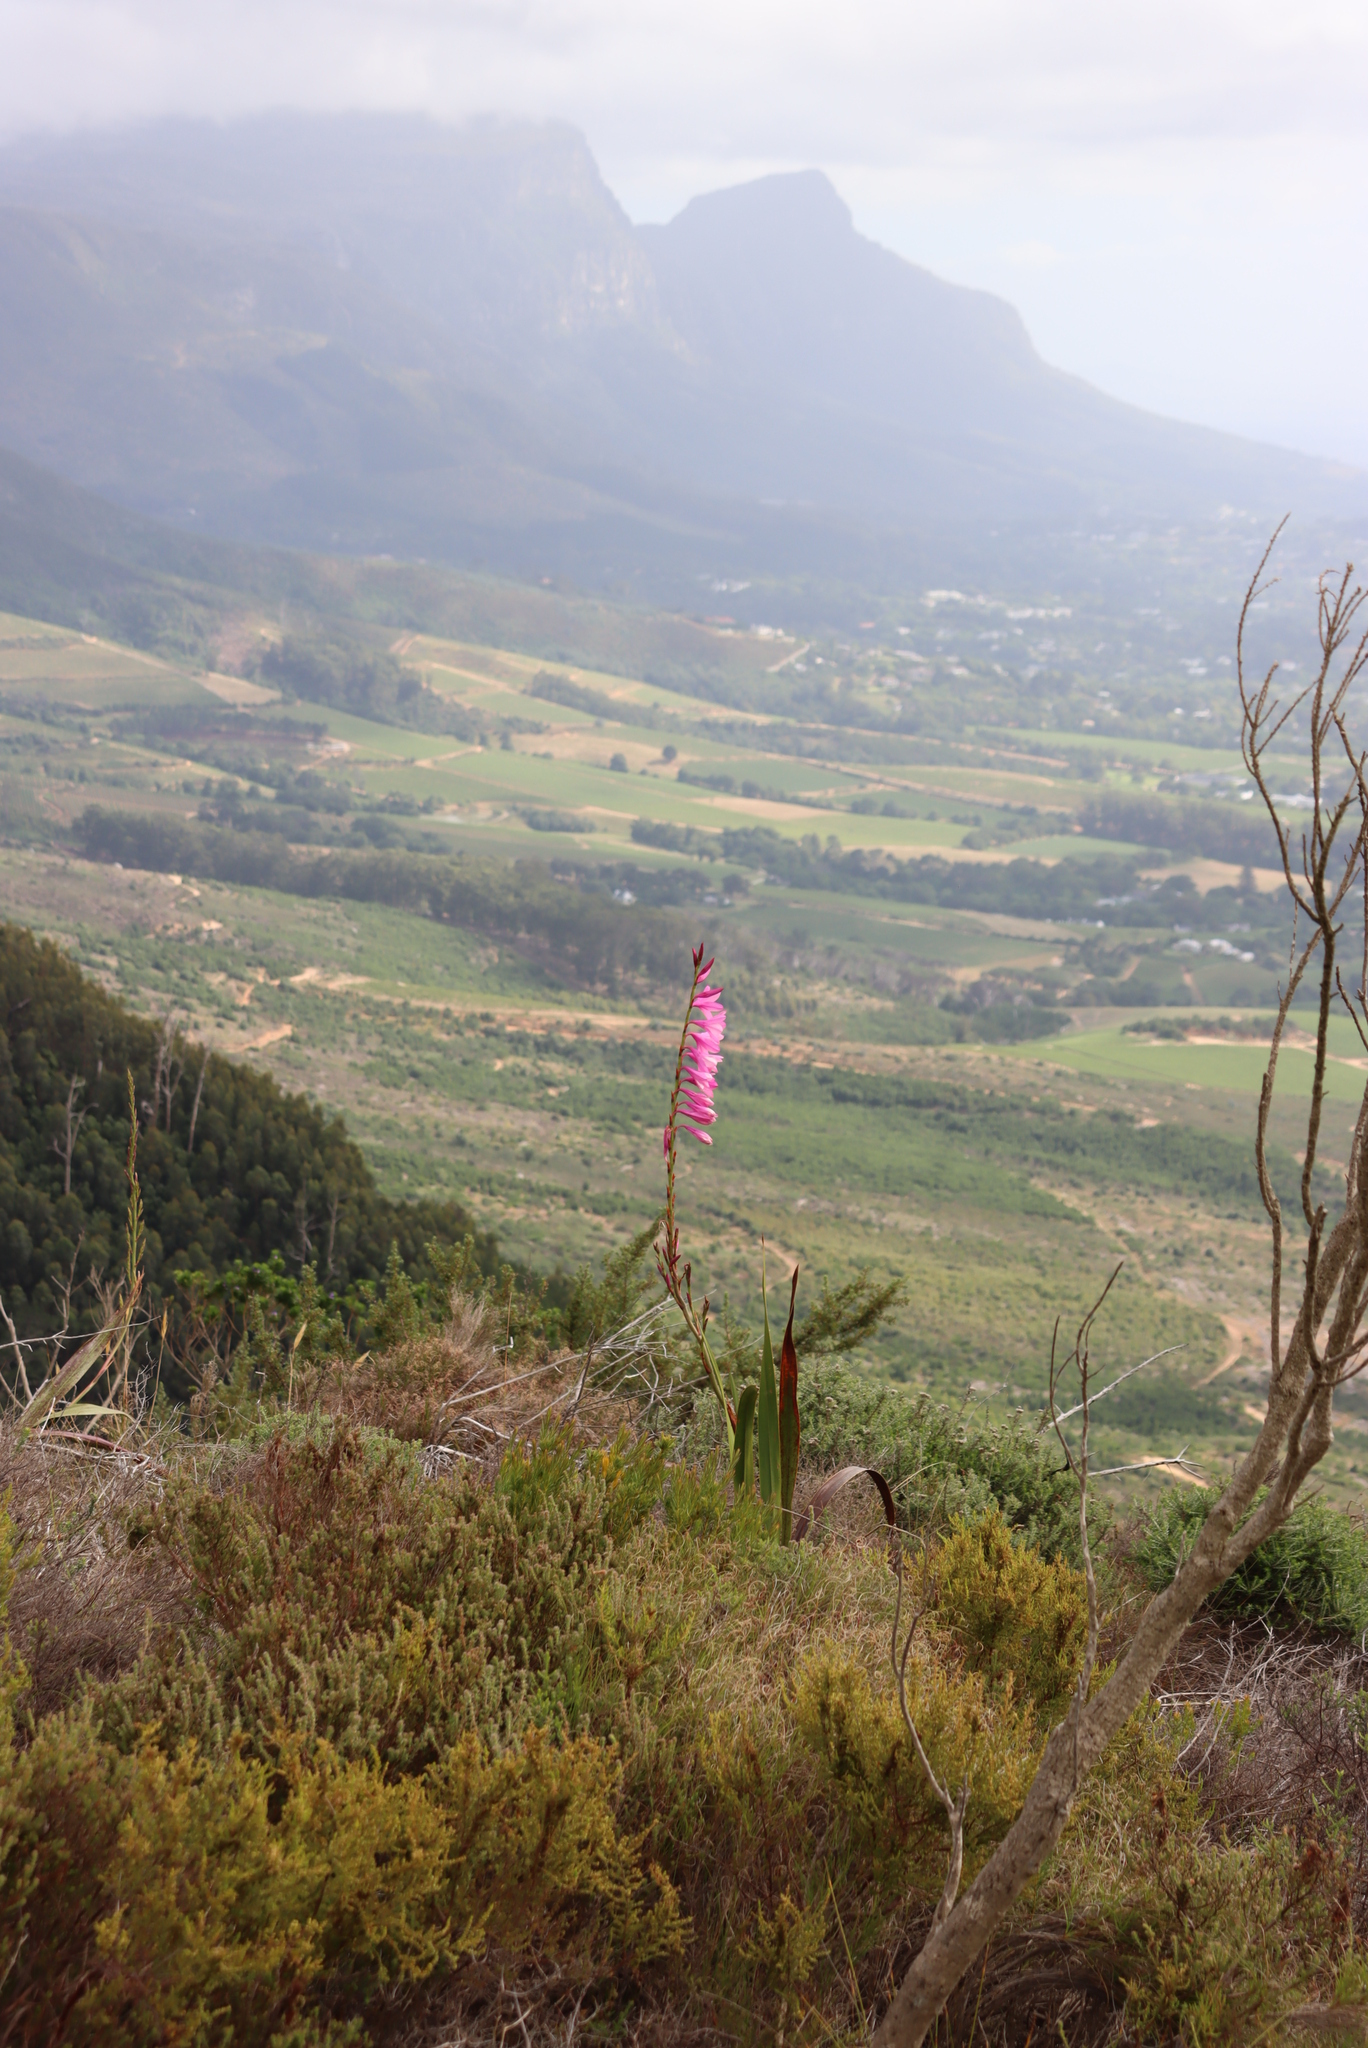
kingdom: Plantae
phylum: Tracheophyta
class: Liliopsida
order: Asparagales
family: Iridaceae
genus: Watsonia
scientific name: Watsonia borbonica
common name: Bugle-lily
